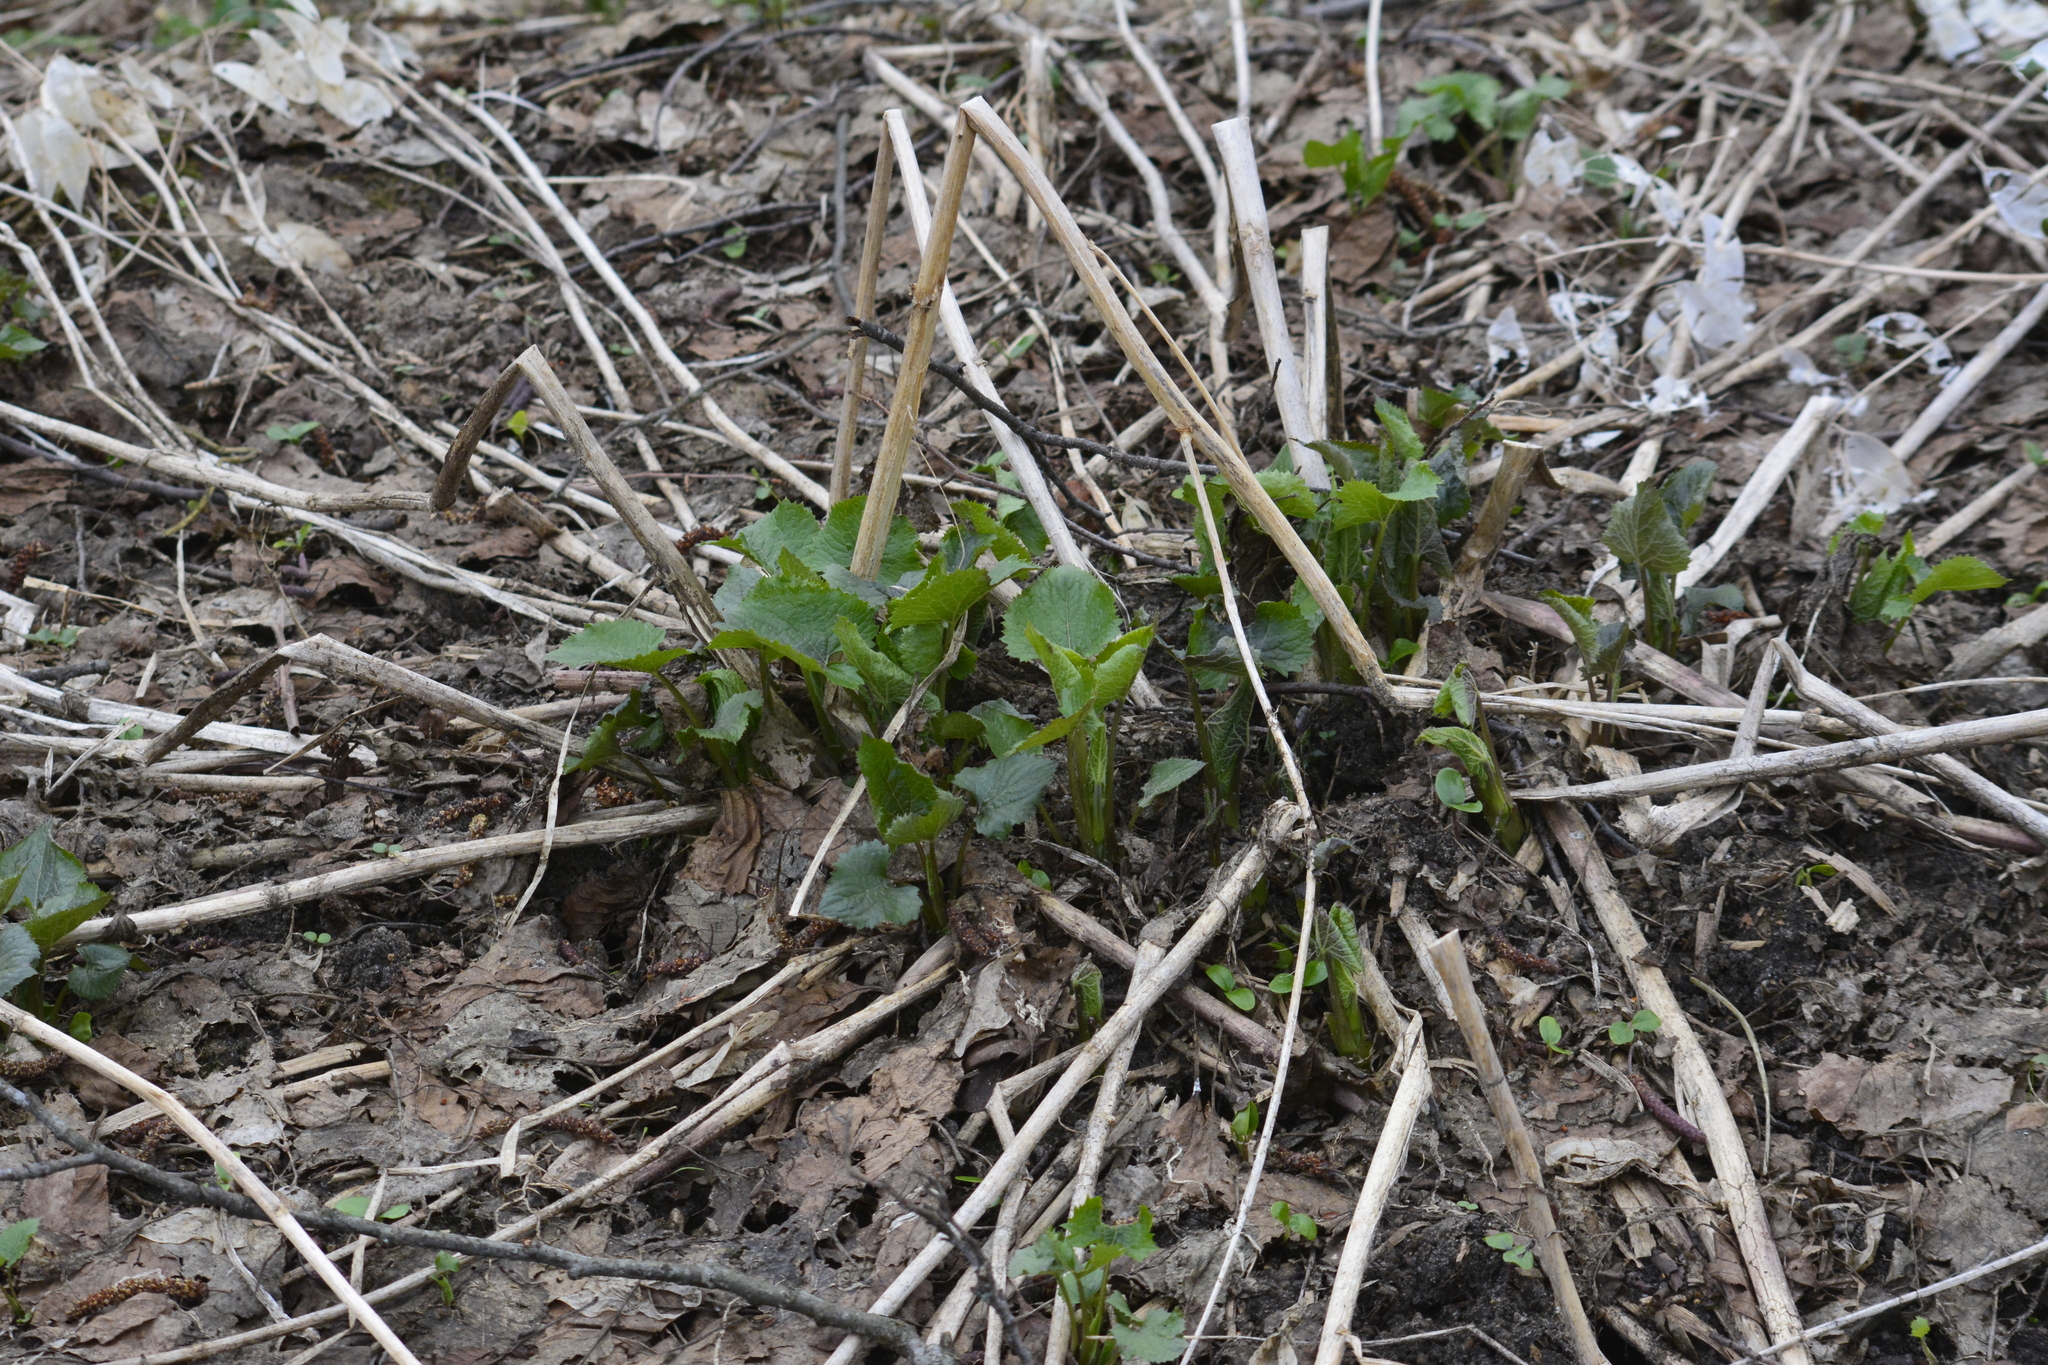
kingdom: Plantae
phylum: Tracheophyta
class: Magnoliopsida
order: Brassicales
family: Brassicaceae
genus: Lunaria
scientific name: Lunaria rediviva
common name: Perennial honesty
